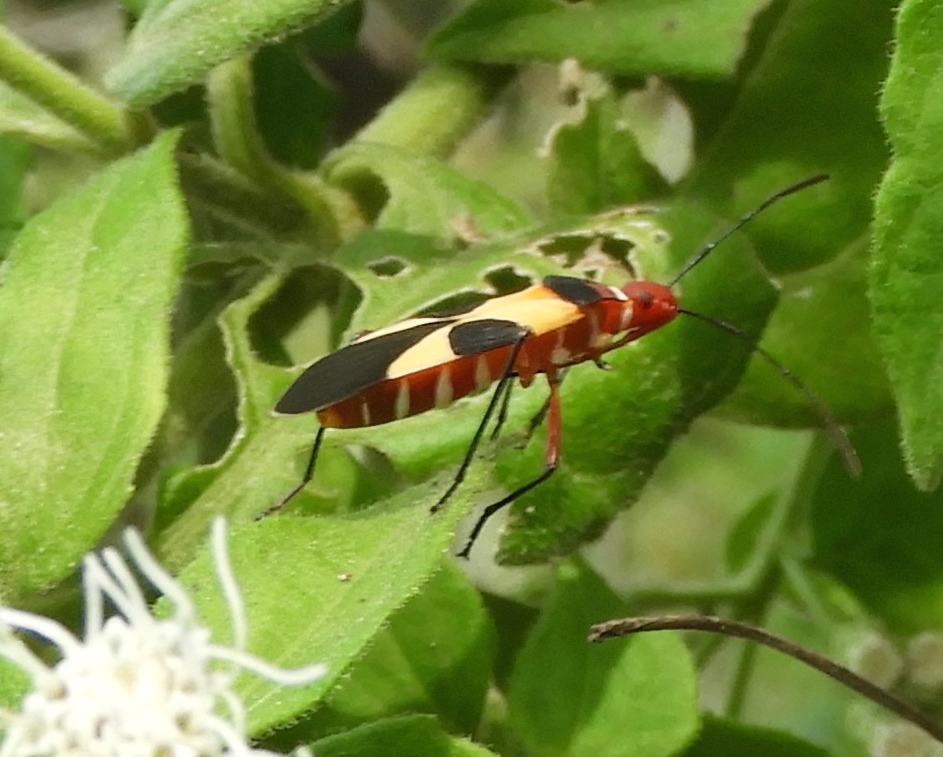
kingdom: Animalia
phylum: Arthropoda
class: Insecta
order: Hemiptera
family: Pyrrhocoridae
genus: Dysdercus
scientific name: Dysdercus
